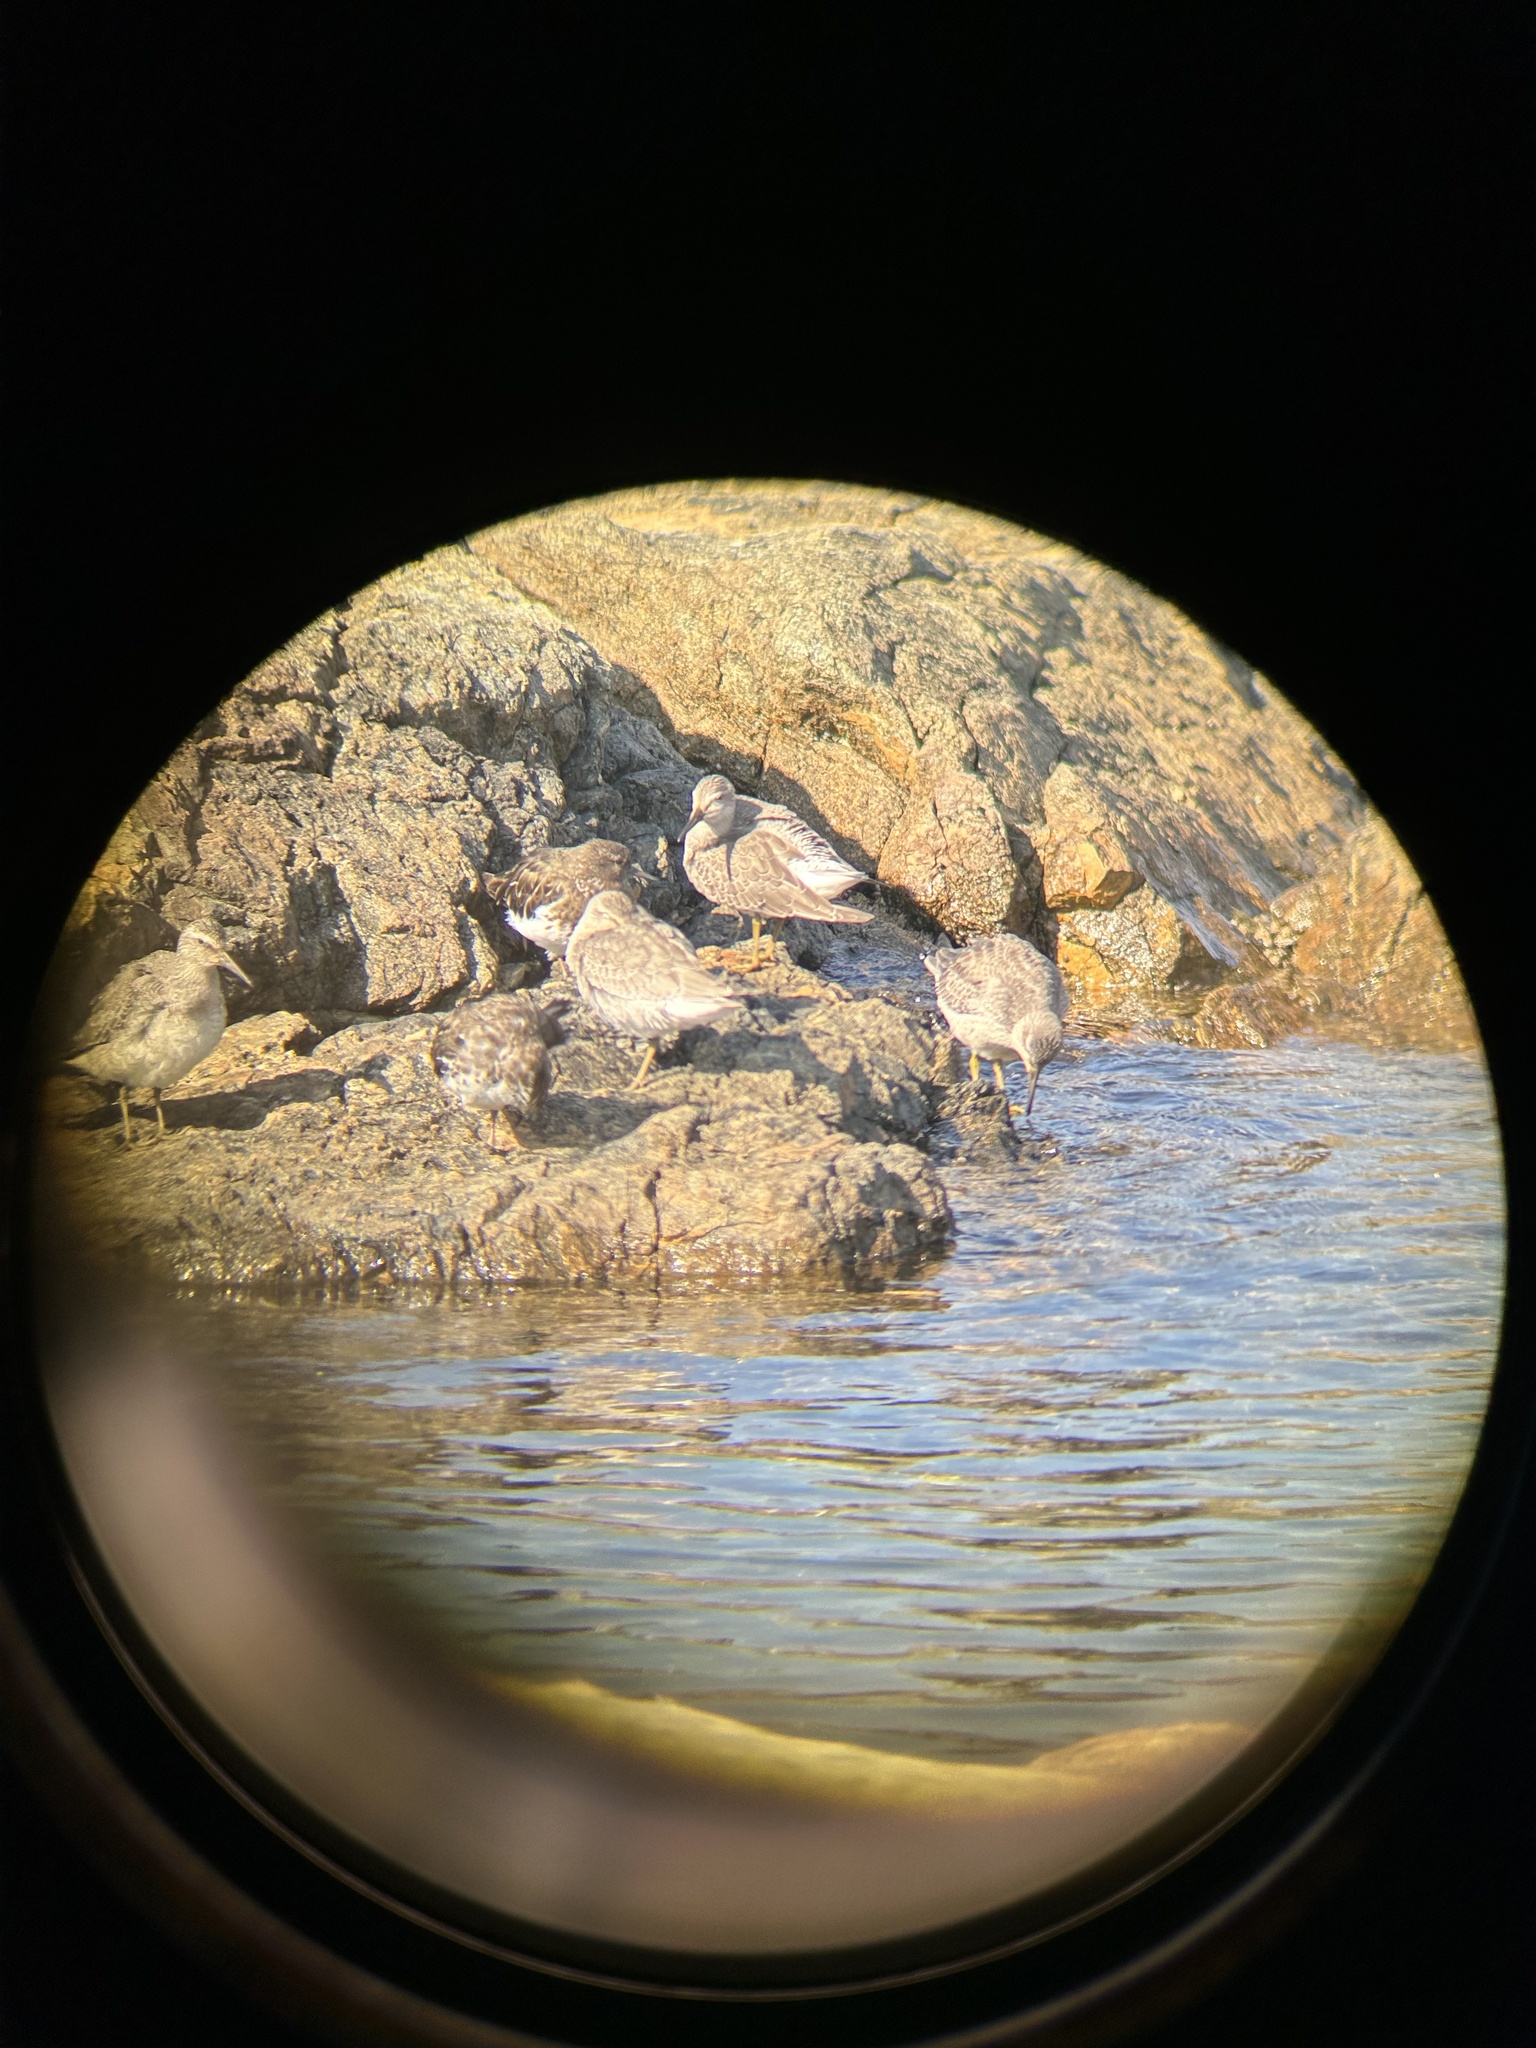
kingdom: Animalia
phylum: Chordata
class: Aves
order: Charadriiformes
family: Scolopacidae
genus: Arenaria
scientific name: Arenaria melanocephala
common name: Black turnstone
